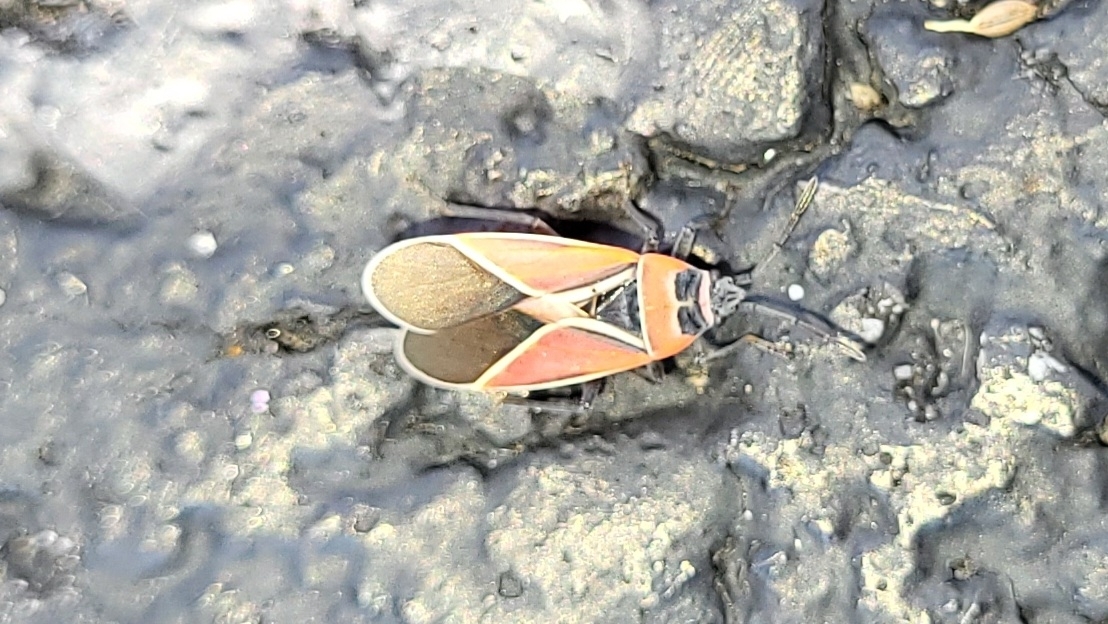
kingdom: Animalia
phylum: Arthropoda
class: Insecta
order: Hemiptera
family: Lygaeidae
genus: Neacoryphus
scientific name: Neacoryphus bicrucis
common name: Lygaeid bug
